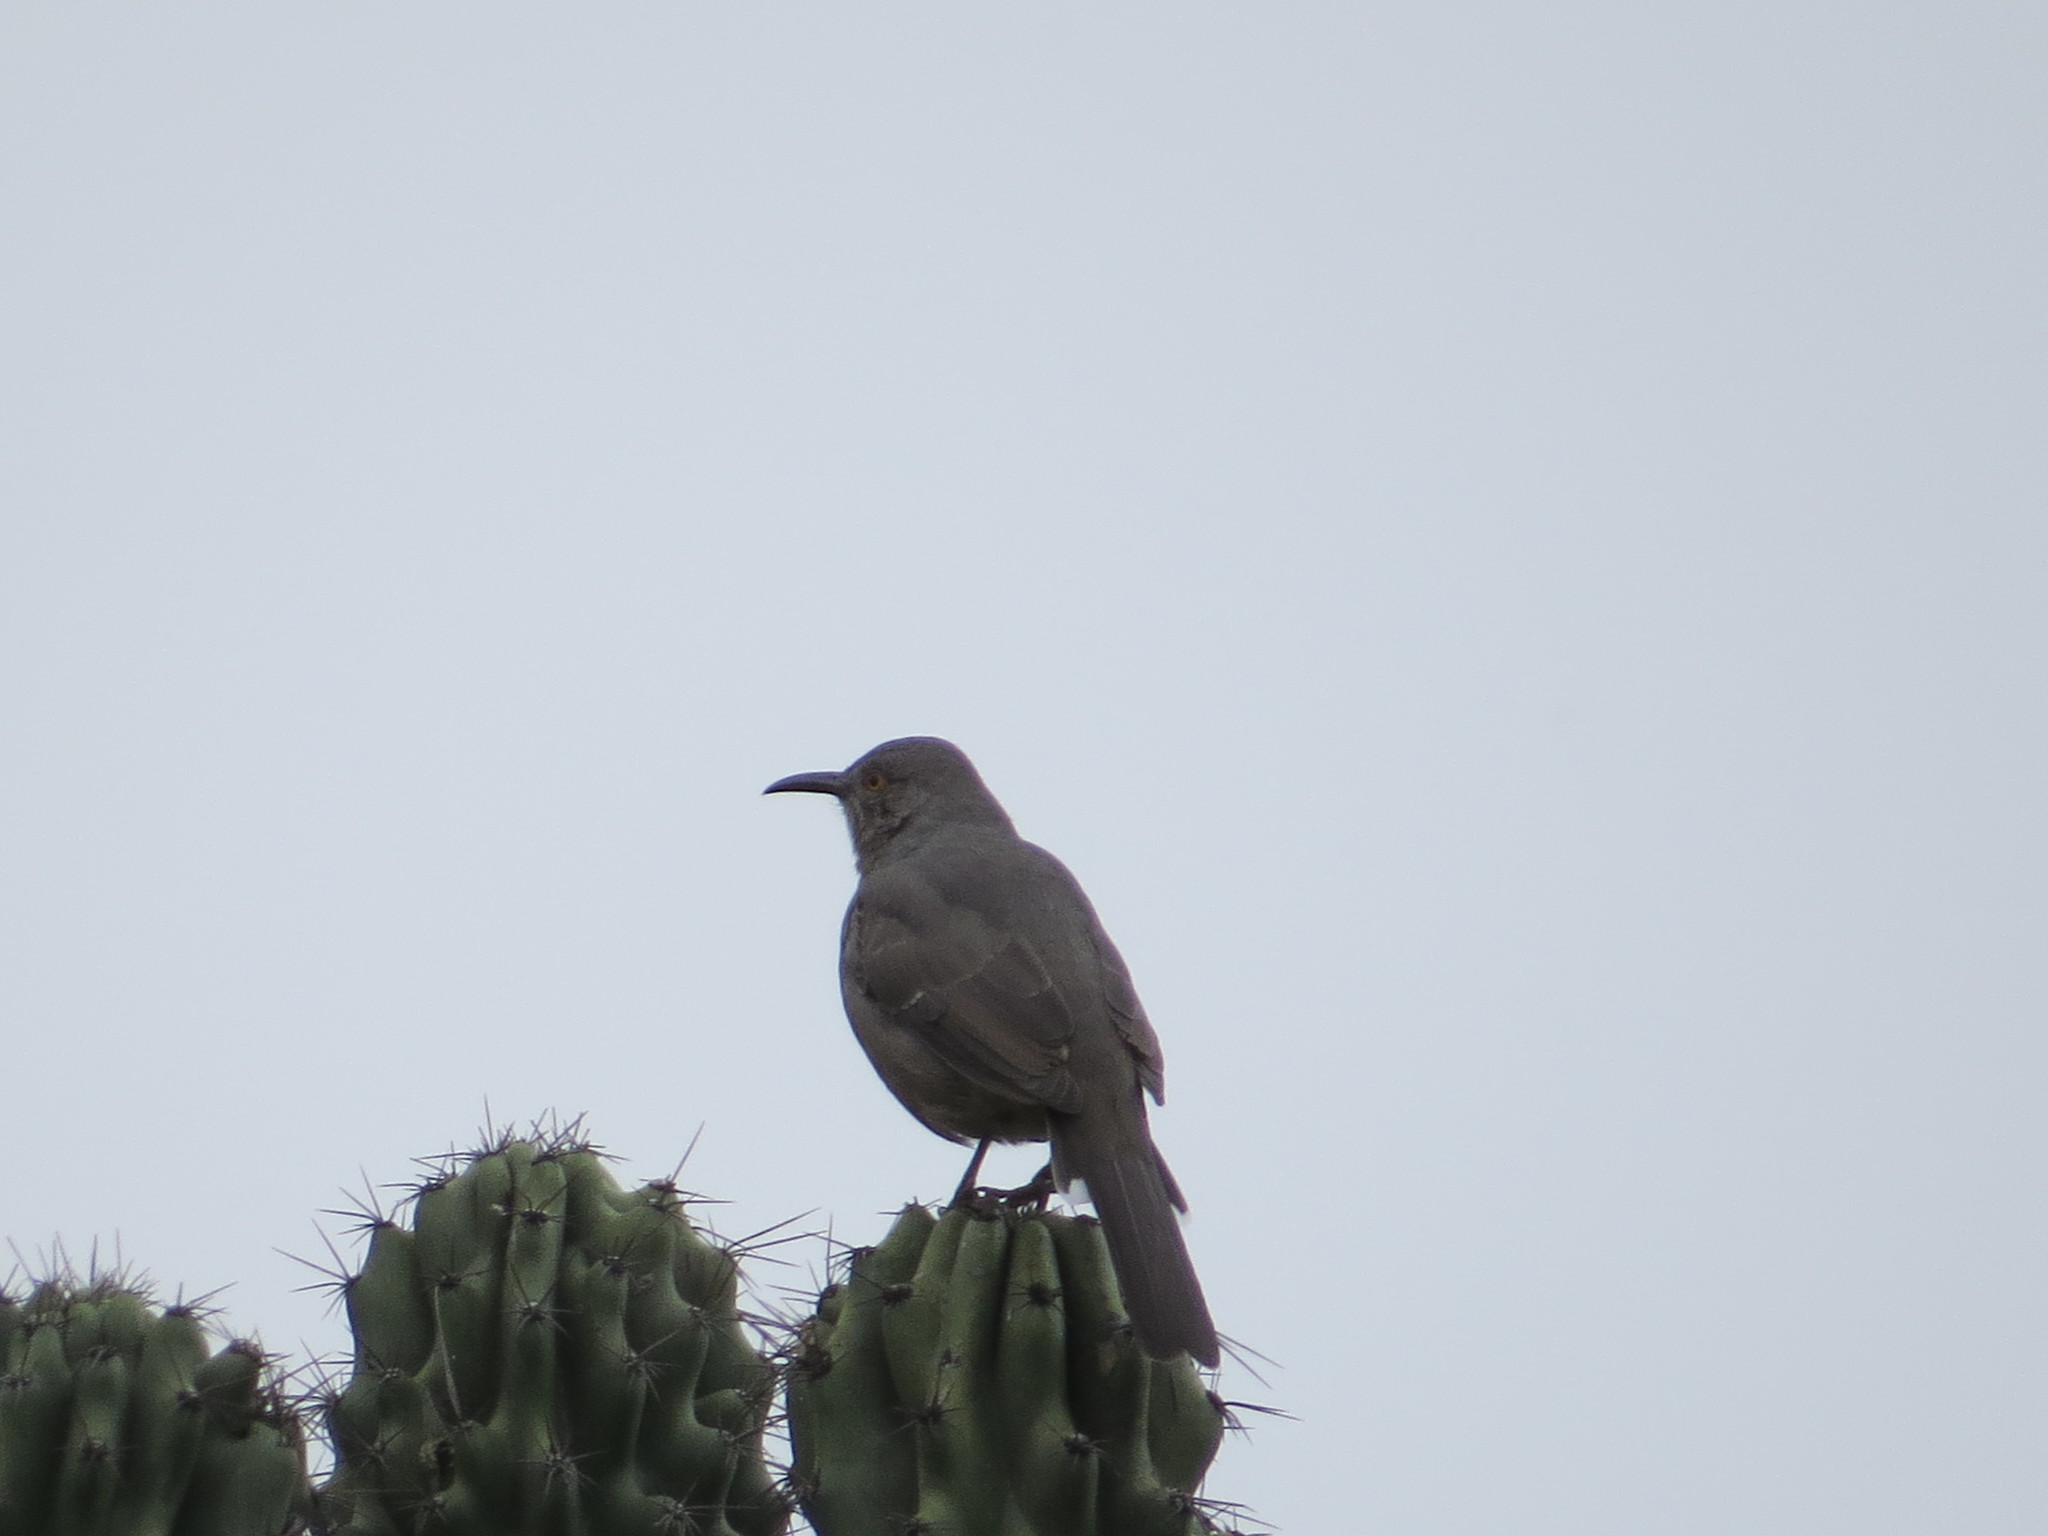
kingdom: Animalia
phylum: Chordata
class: Aves
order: Passeriformes
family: Mimidae
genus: Toxostoma
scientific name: Toxostoma curvirostre
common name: Curve-billed thrasher
